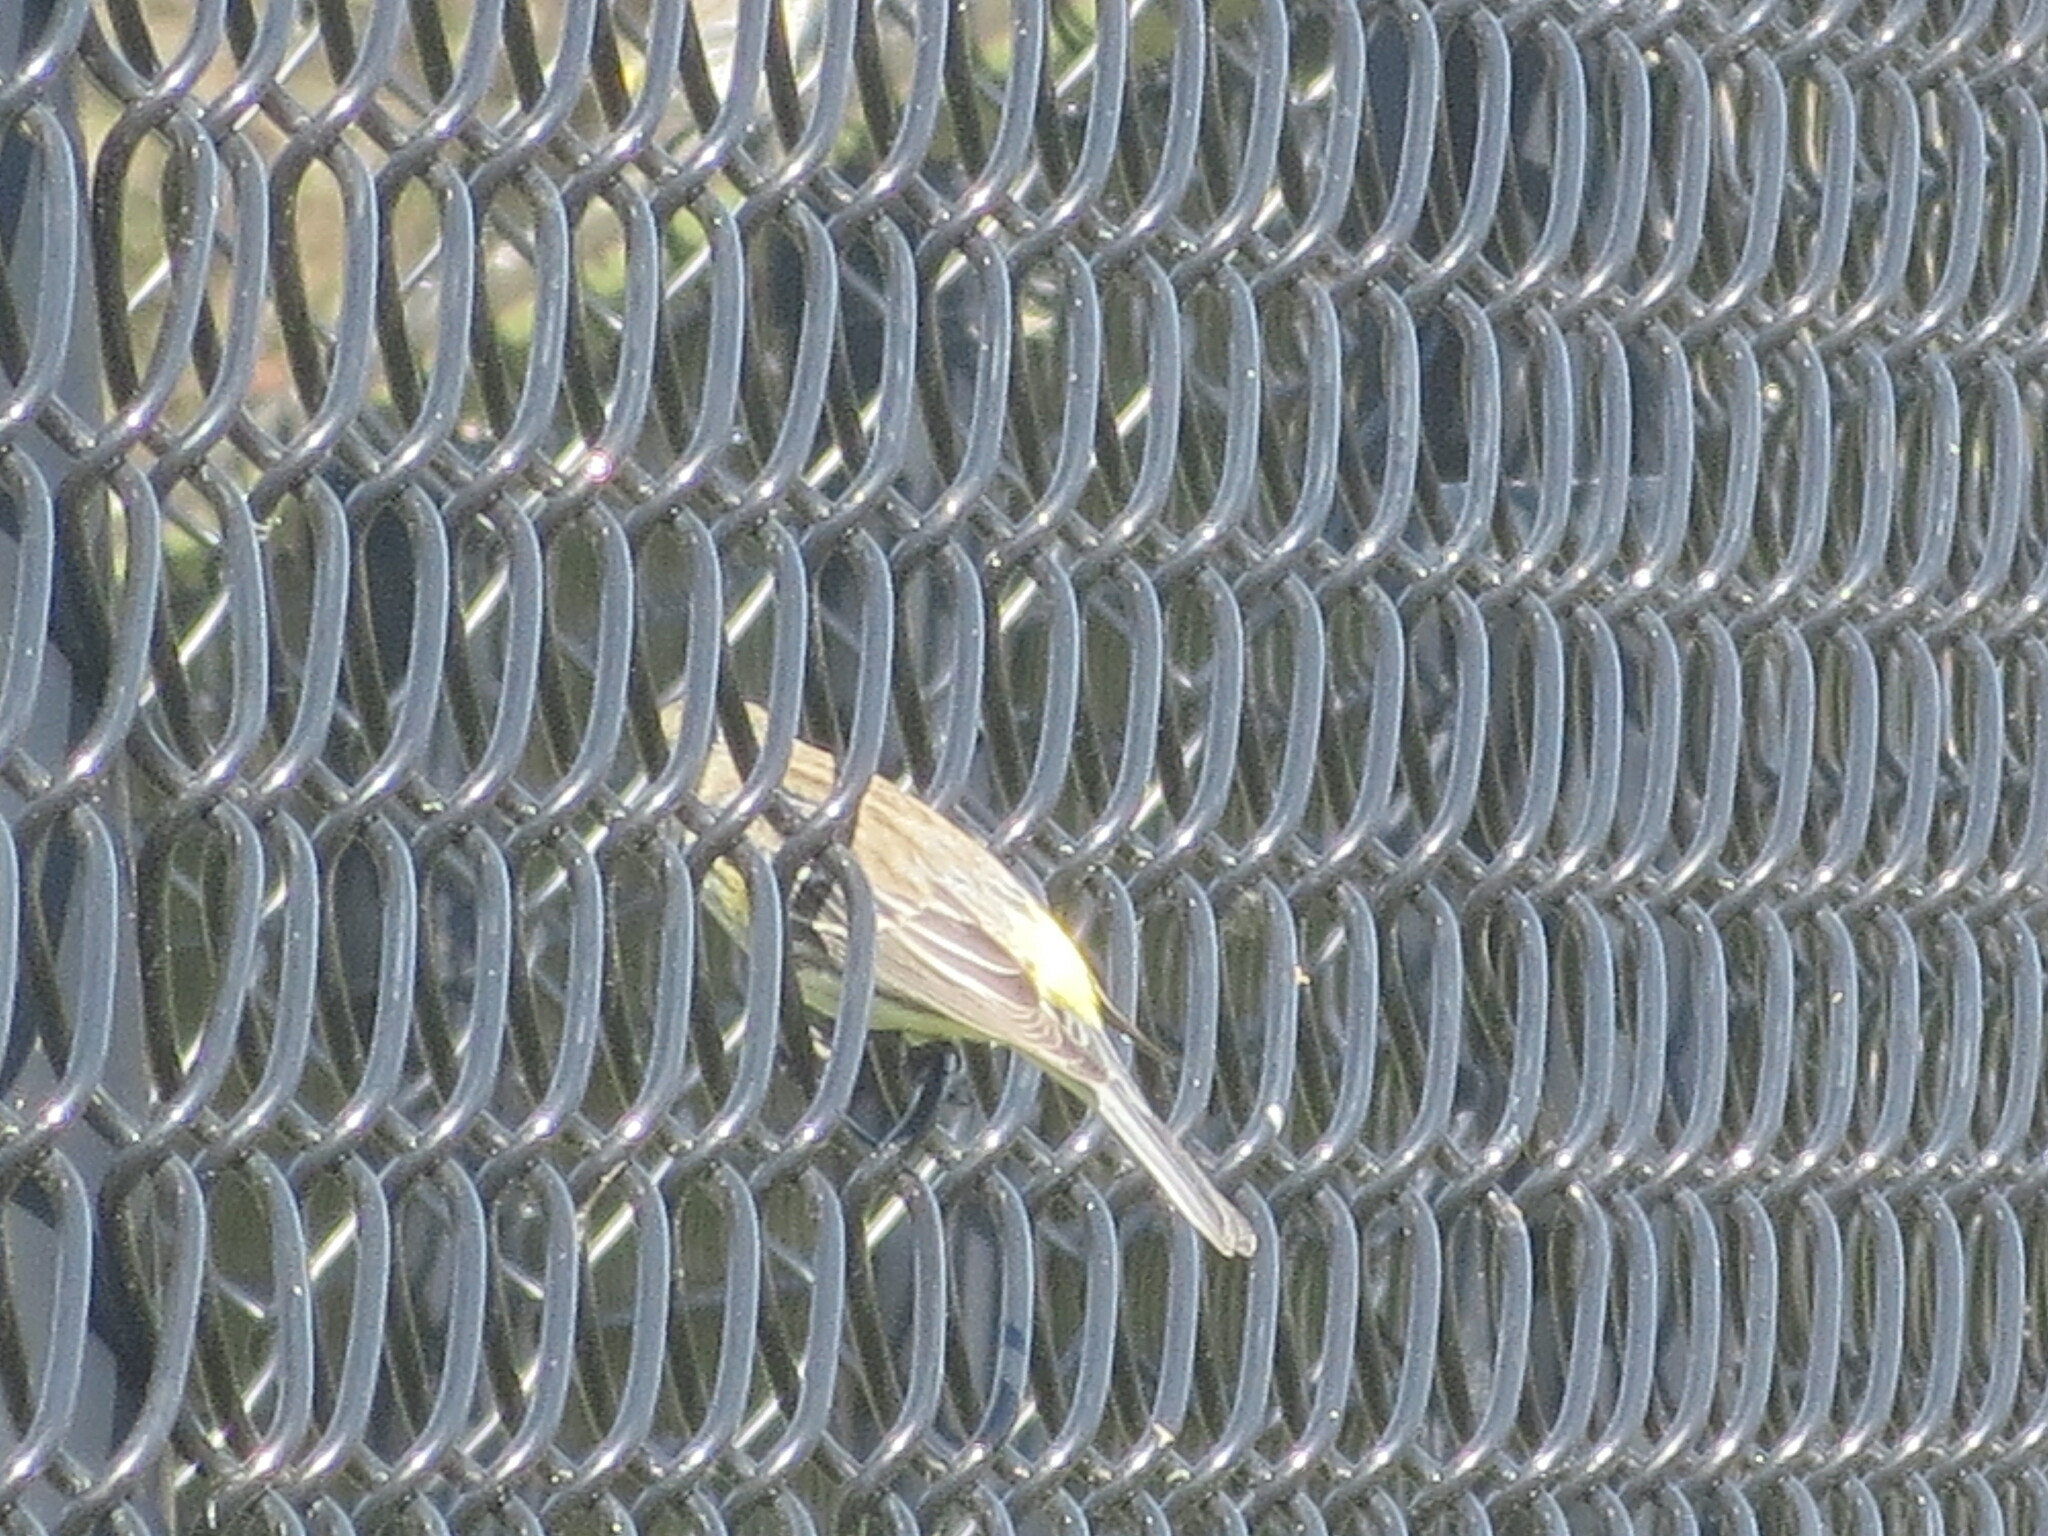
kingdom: Animalia
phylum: Chordata
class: Aves
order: Passeriformes
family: Parulidae
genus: Setophaga
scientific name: Setophaga coronata
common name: Myrtle warbler
